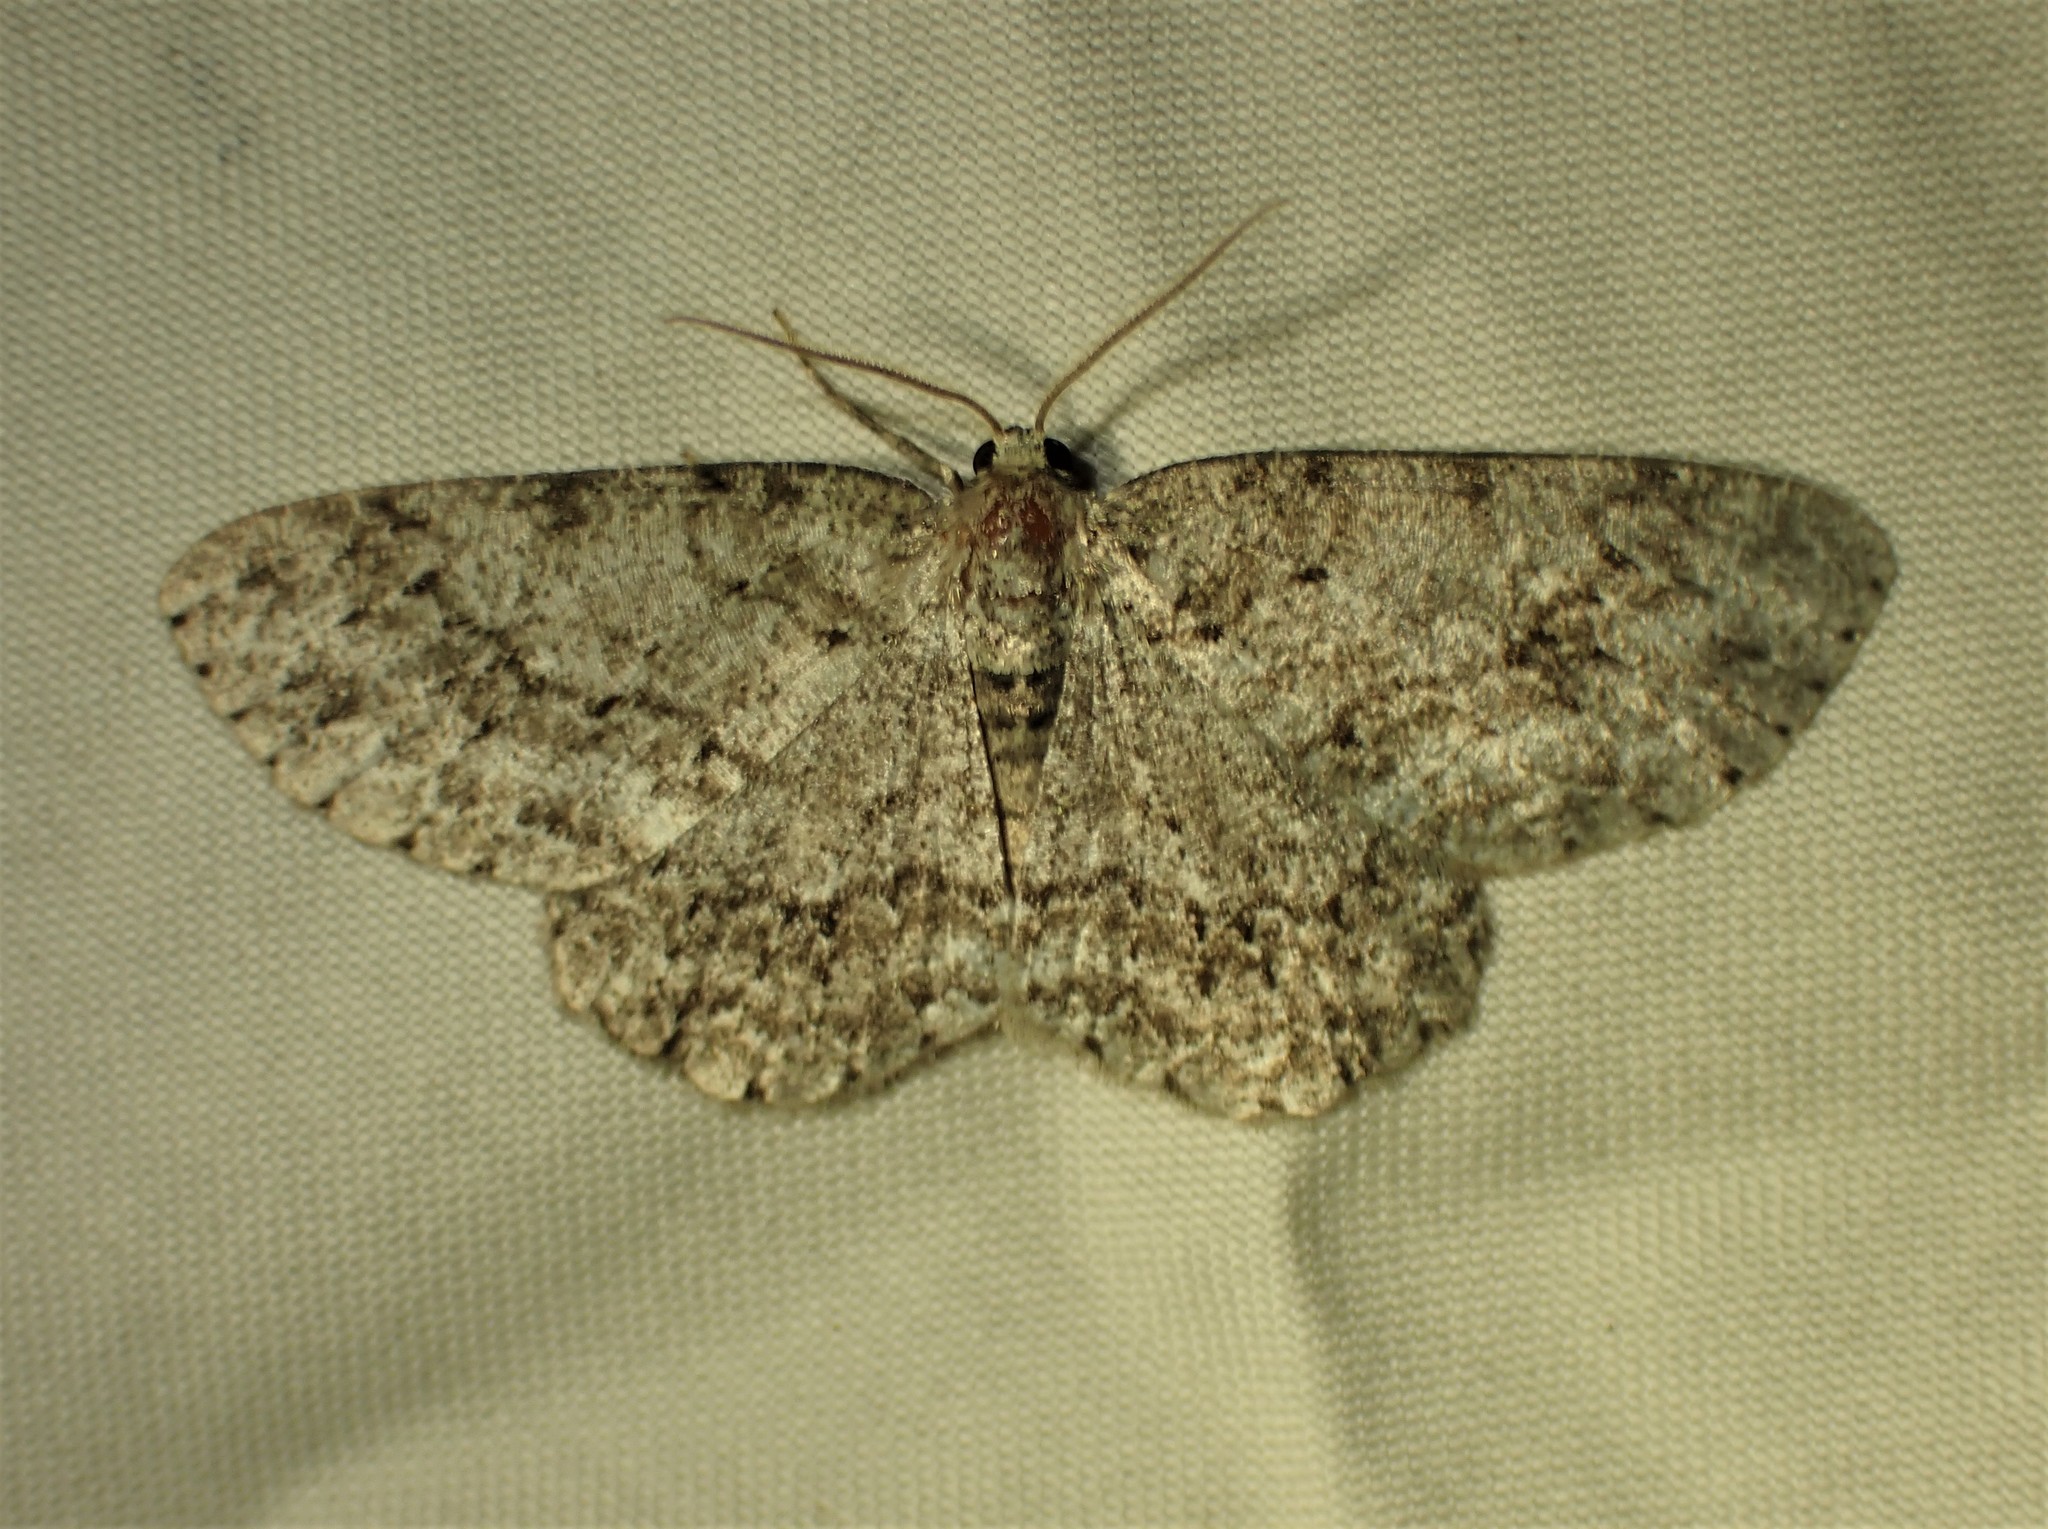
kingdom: Animalia
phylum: Arthropoda
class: Insecta
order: Lepidoptera
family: Geometridae
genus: Ectropis
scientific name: Ectropis crepuscularia
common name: Engrailed
